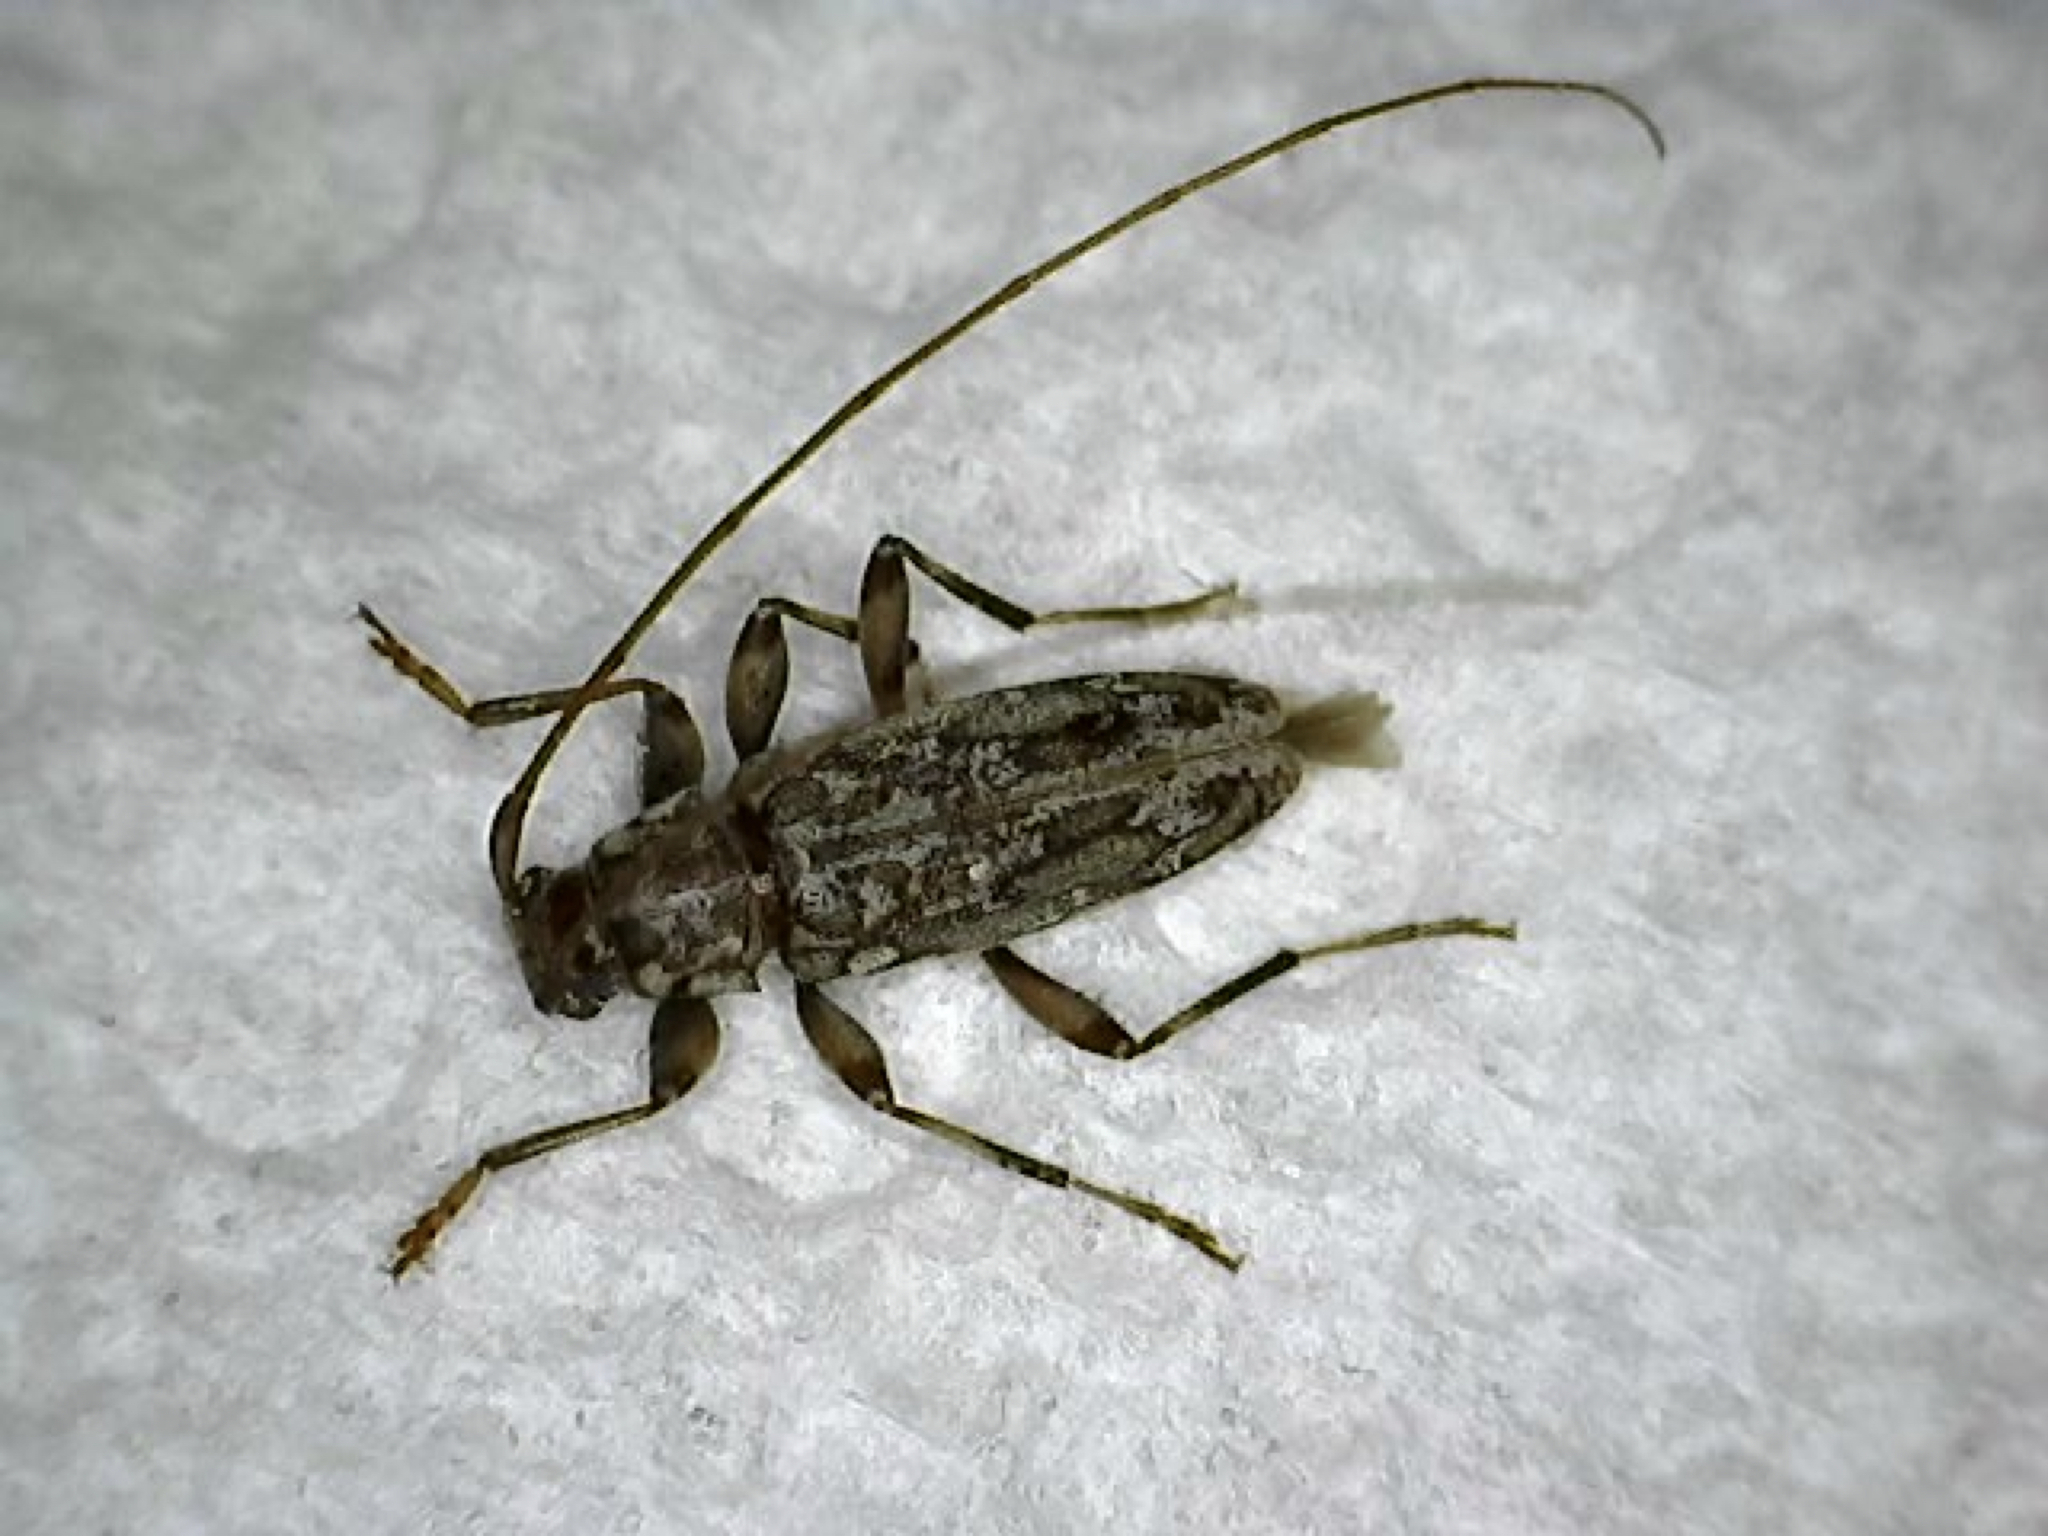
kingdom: Animalia
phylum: Arthropoda
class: Insecta
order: Coleoptera
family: Cerambycidae
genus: Lepturges
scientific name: Lepturges confluens
